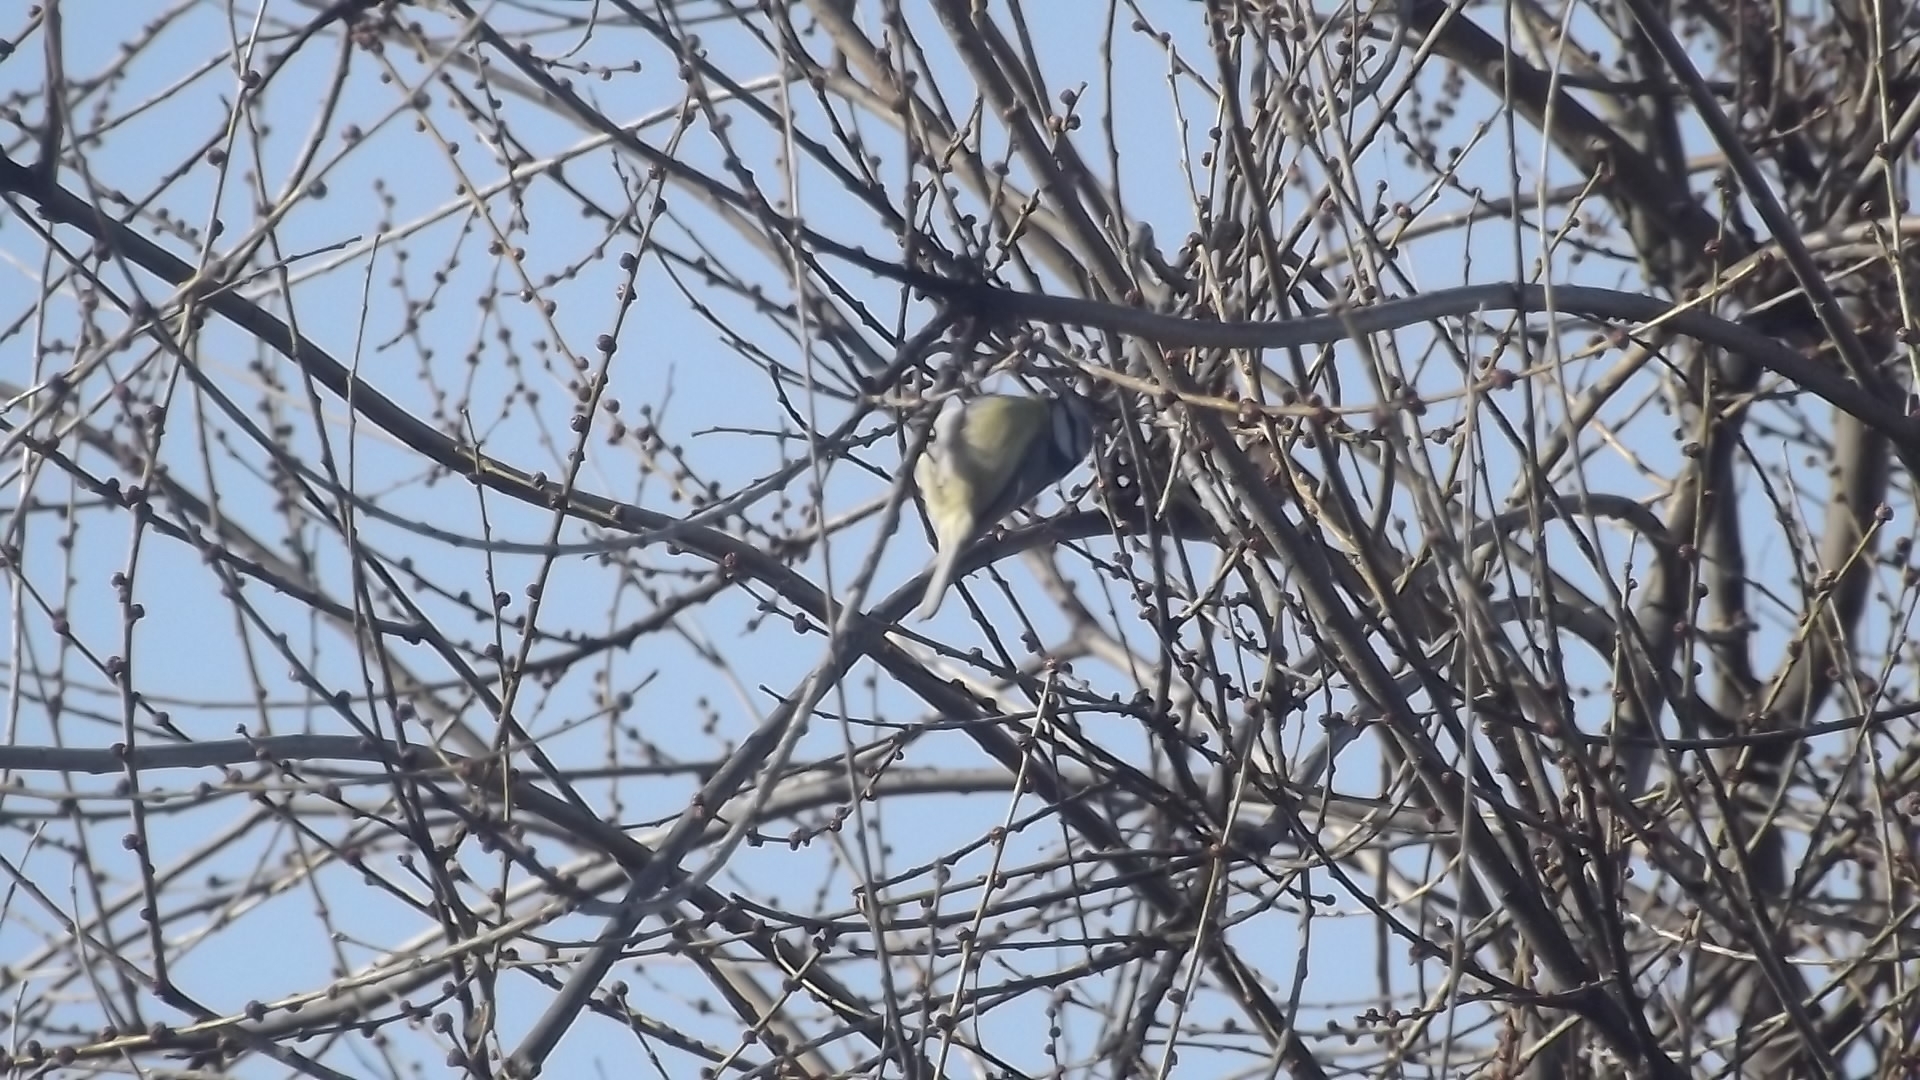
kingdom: Animalia
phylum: Chordata
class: Aves
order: Passeriformes
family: Paridae
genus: Cyanistes
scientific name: Cyanistes caeruleus
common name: Eurasian blue tit
